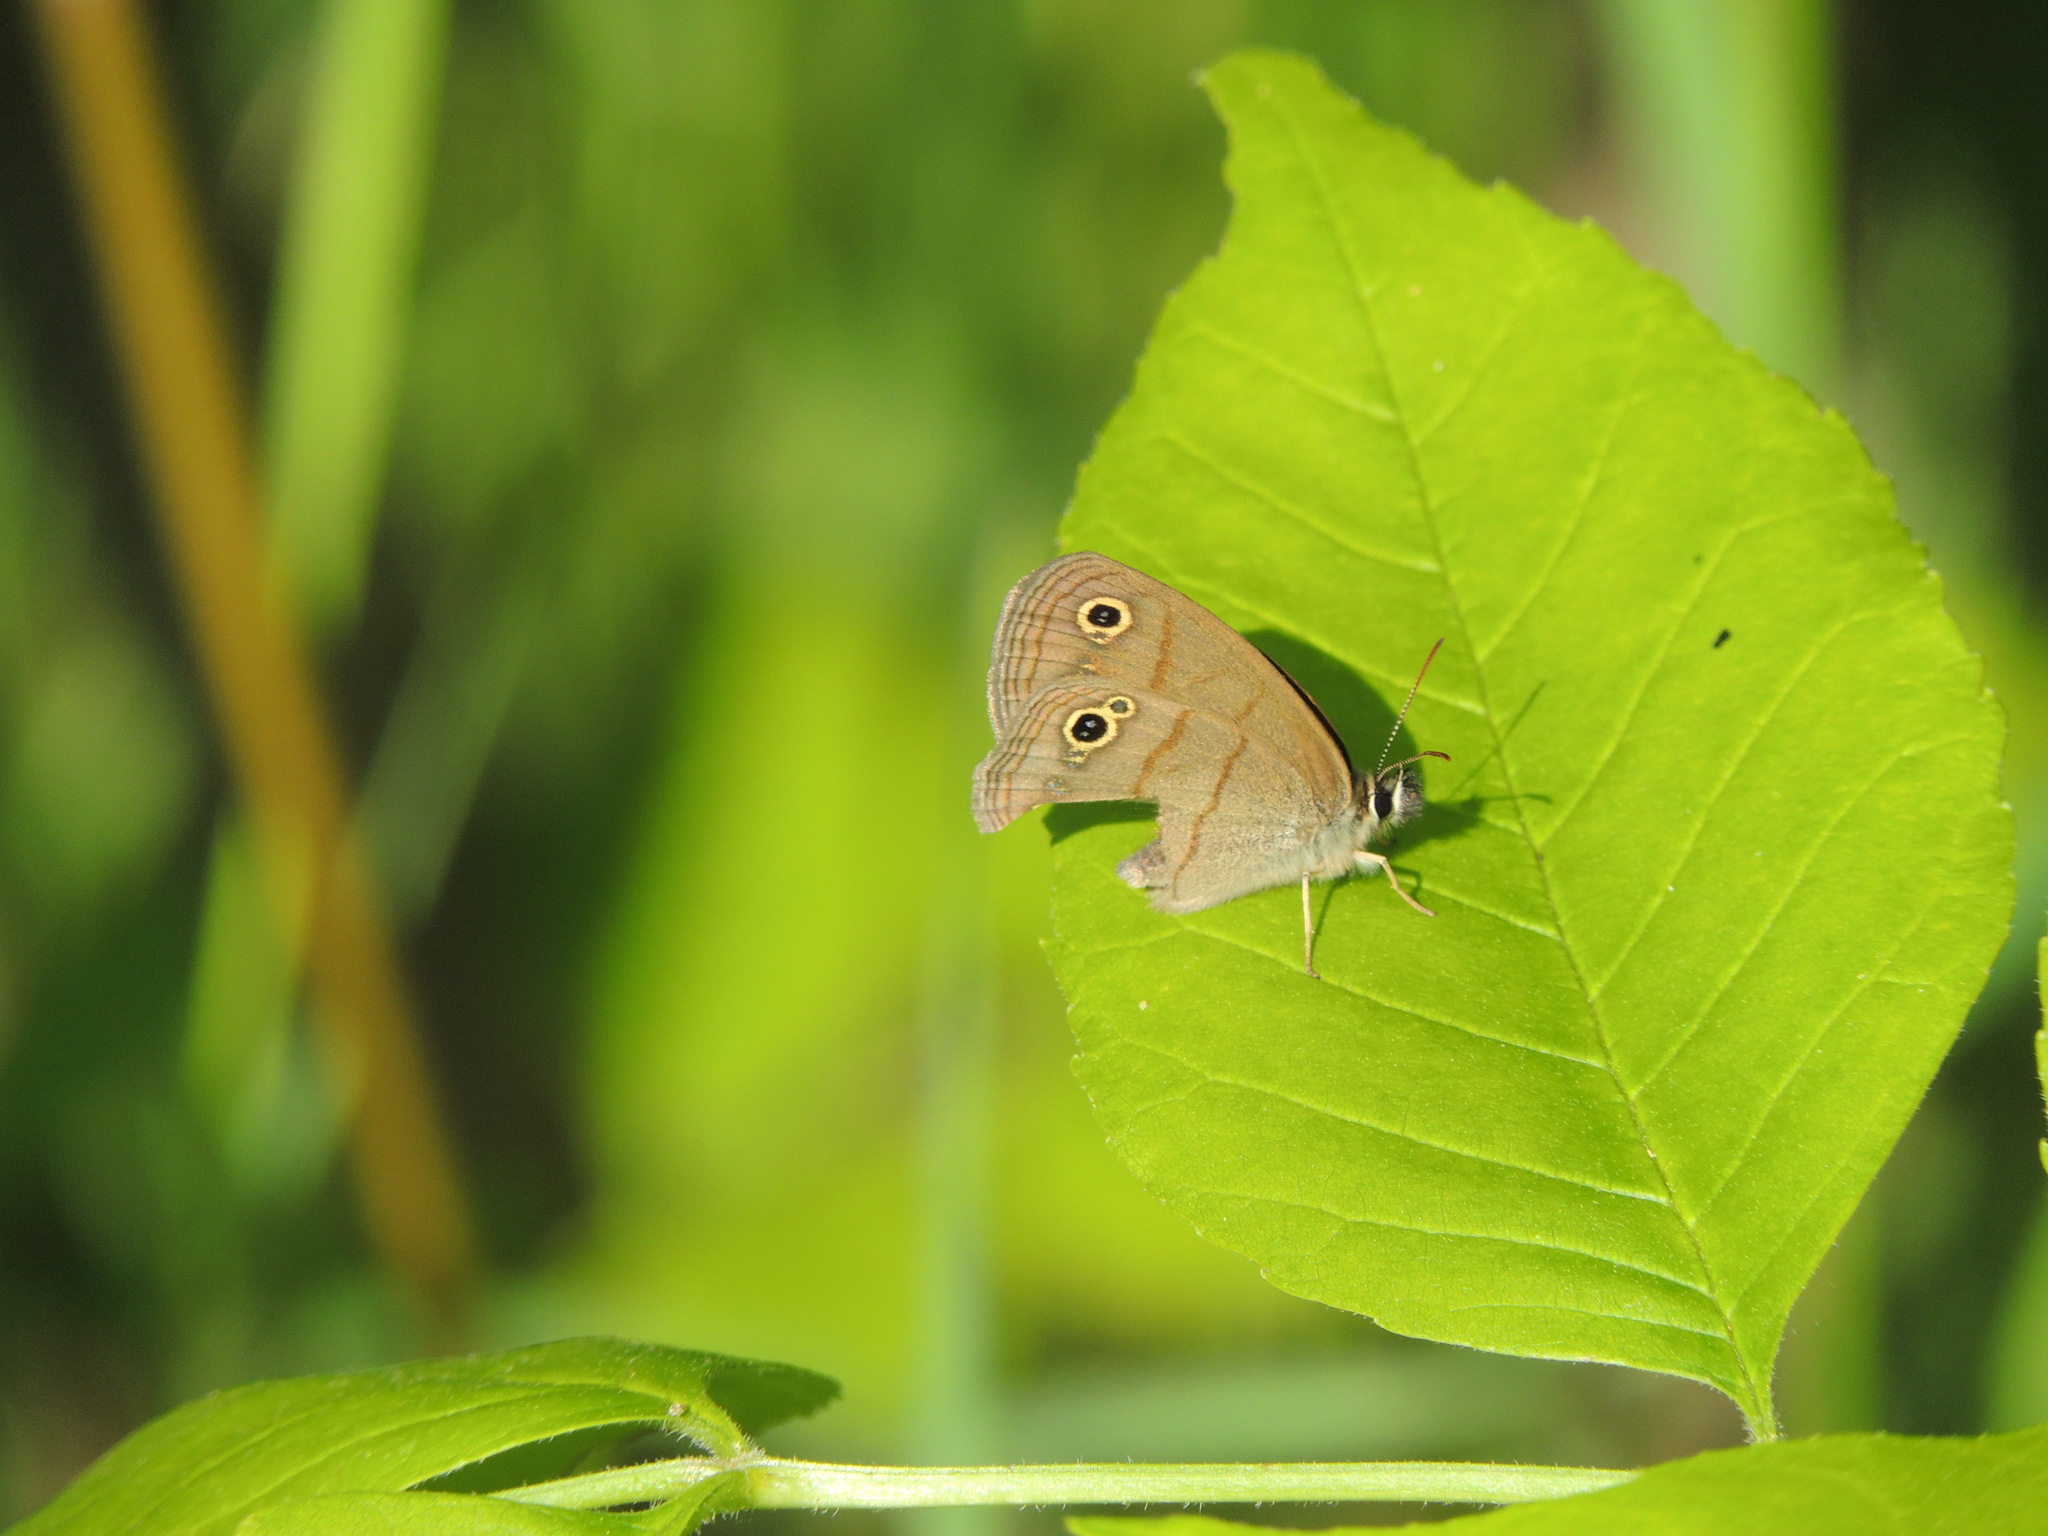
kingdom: Animalia
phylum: Arthropoda
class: Insecta
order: Lepidoptera
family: Nymphalidae
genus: Euptychia
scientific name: Euptychia cymela
